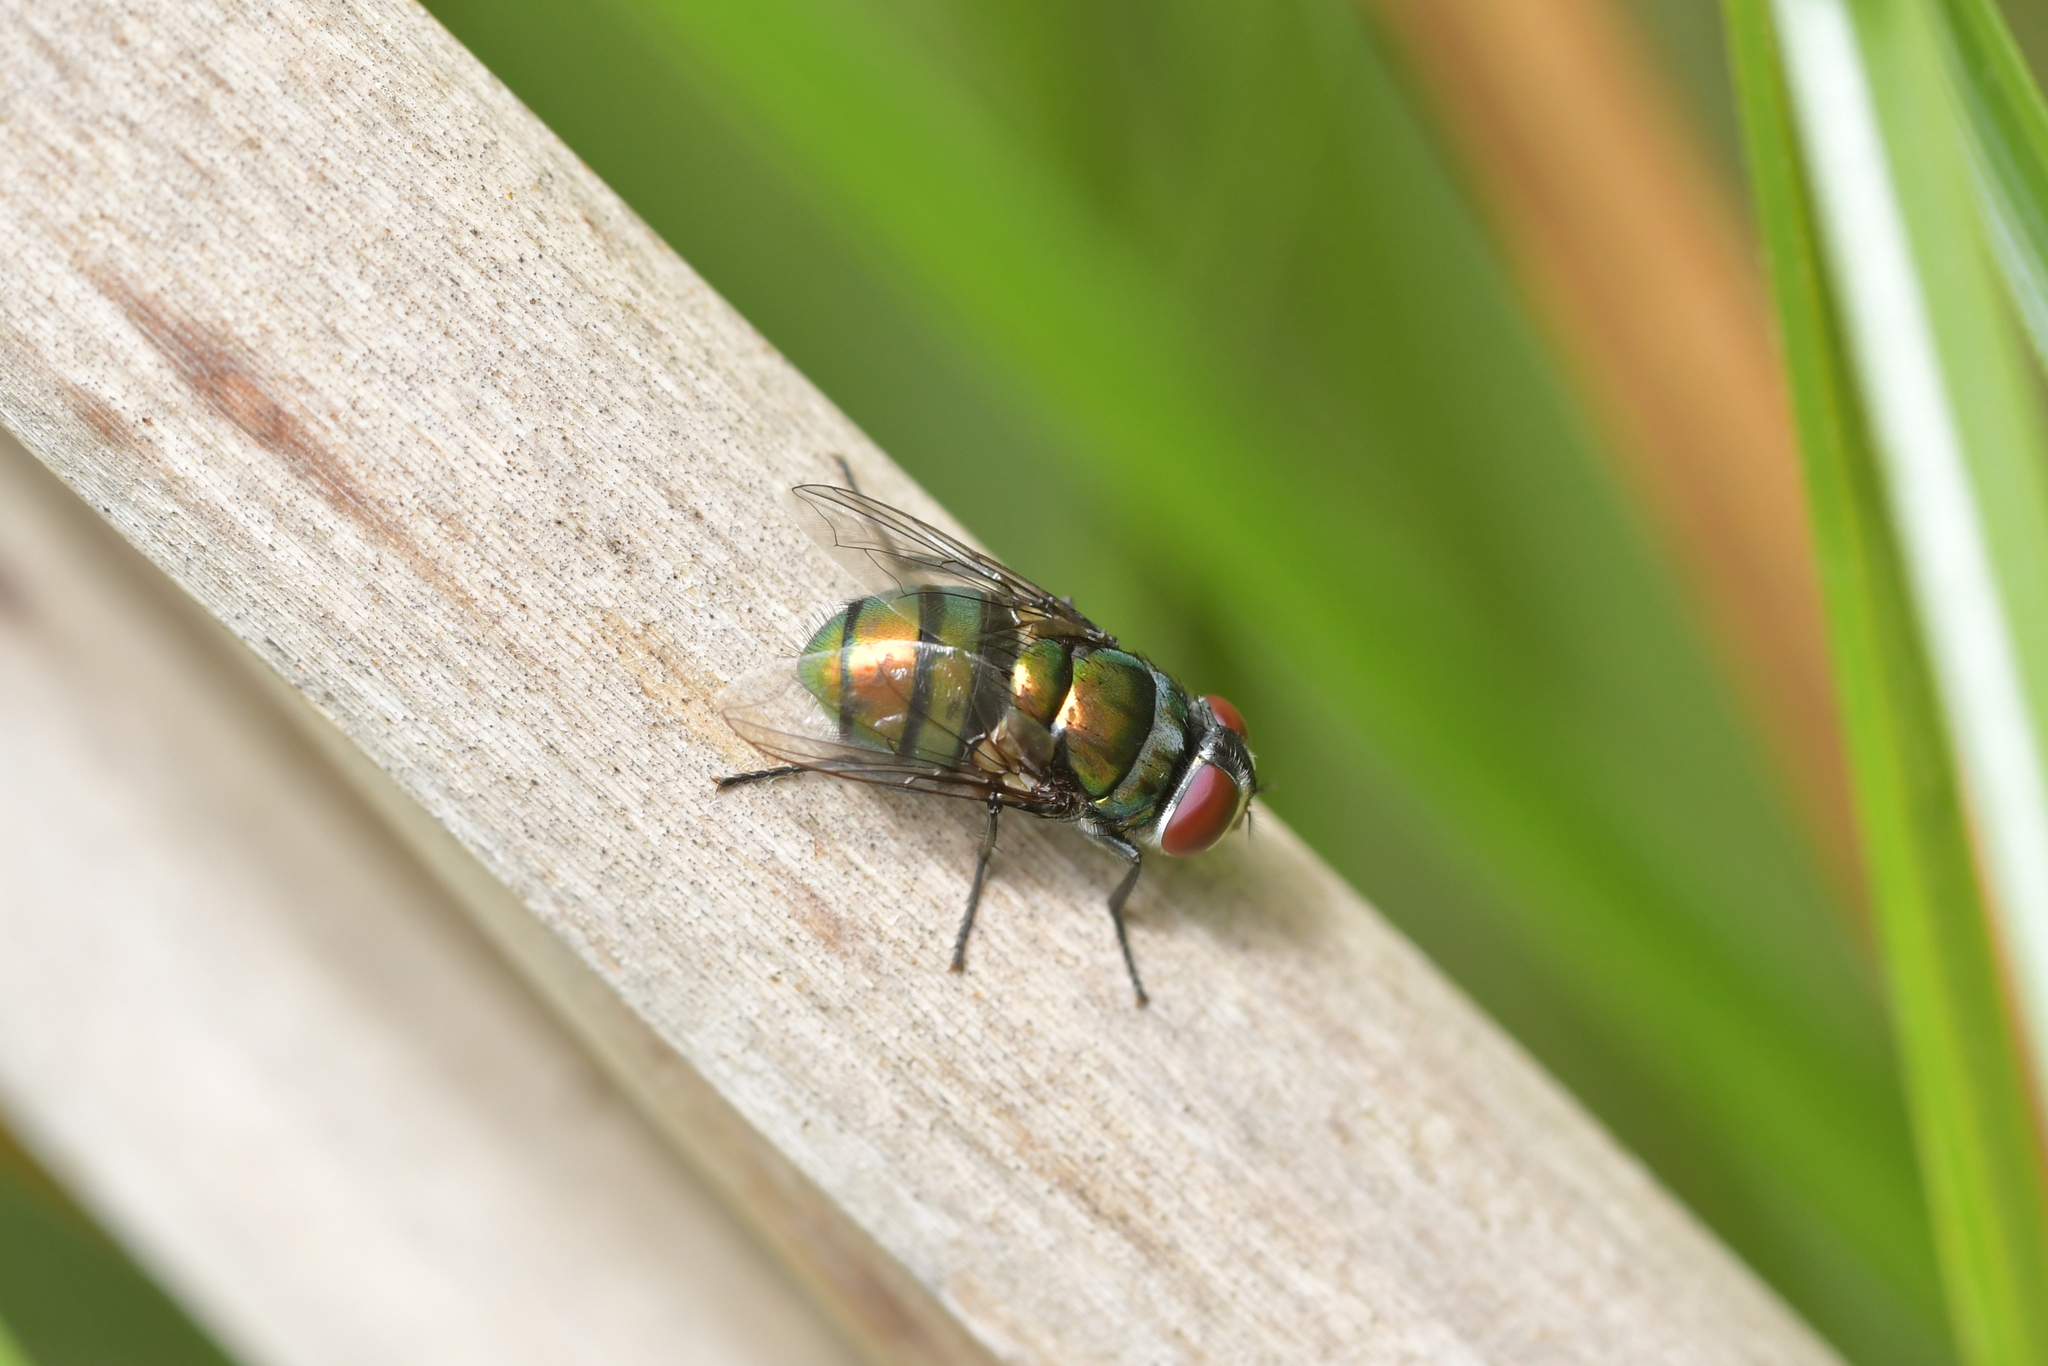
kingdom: Animalia
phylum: Arthropoda
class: Insecta
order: Diptera
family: Calliphoridae
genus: Lucilia
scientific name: Lucilia sericata
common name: Blow fly
